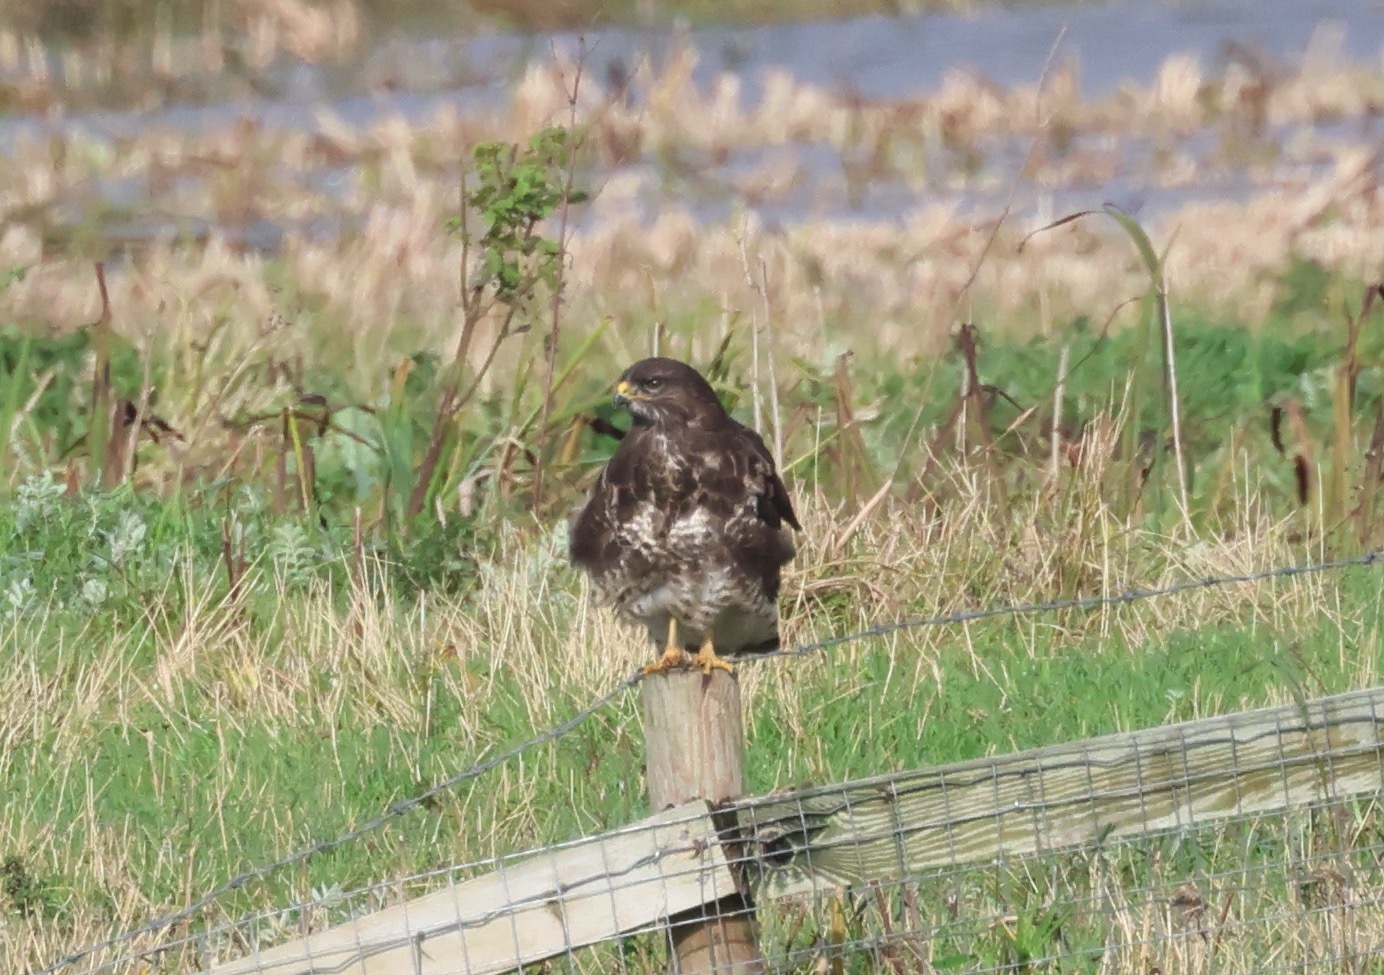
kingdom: Animalia
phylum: Chordata
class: Aves
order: Accipitriformes
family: Accipitridae
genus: Buteo
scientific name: Buteo buteo
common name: Common buzzard
